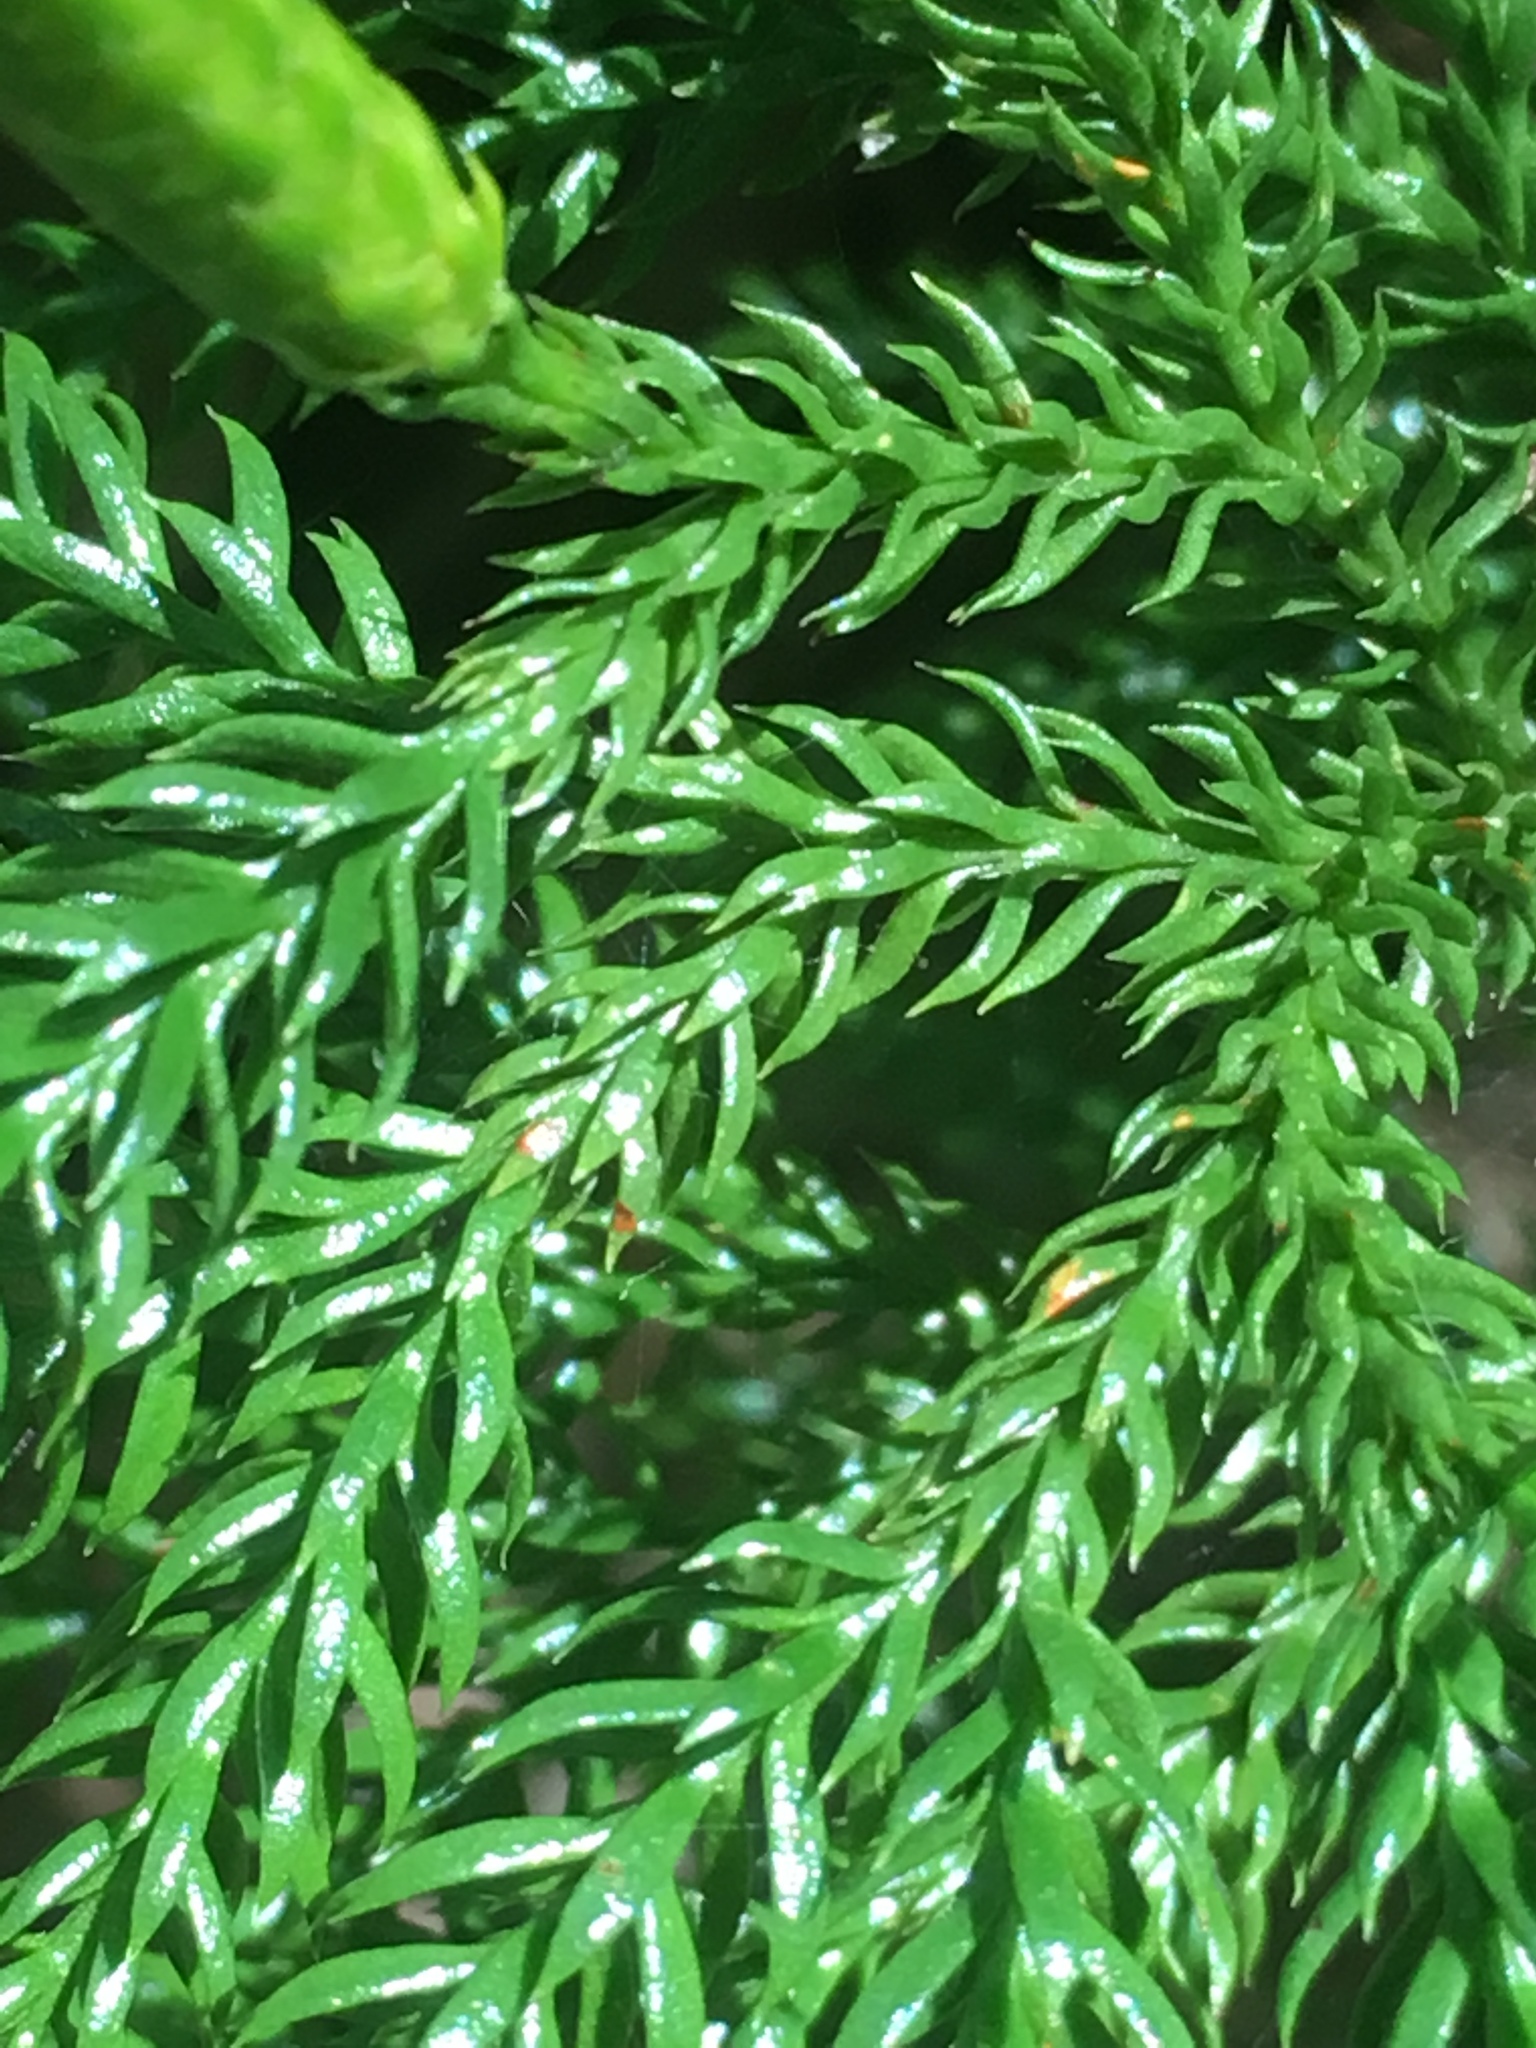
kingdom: Plantae
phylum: Tracheophyta
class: Lycopodiopsida
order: Lycopodiales
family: Lycopodiaceae
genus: Dendrolycopodium
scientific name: Dendrolycopodium dendroideum
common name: Northern tree-clubmoss
